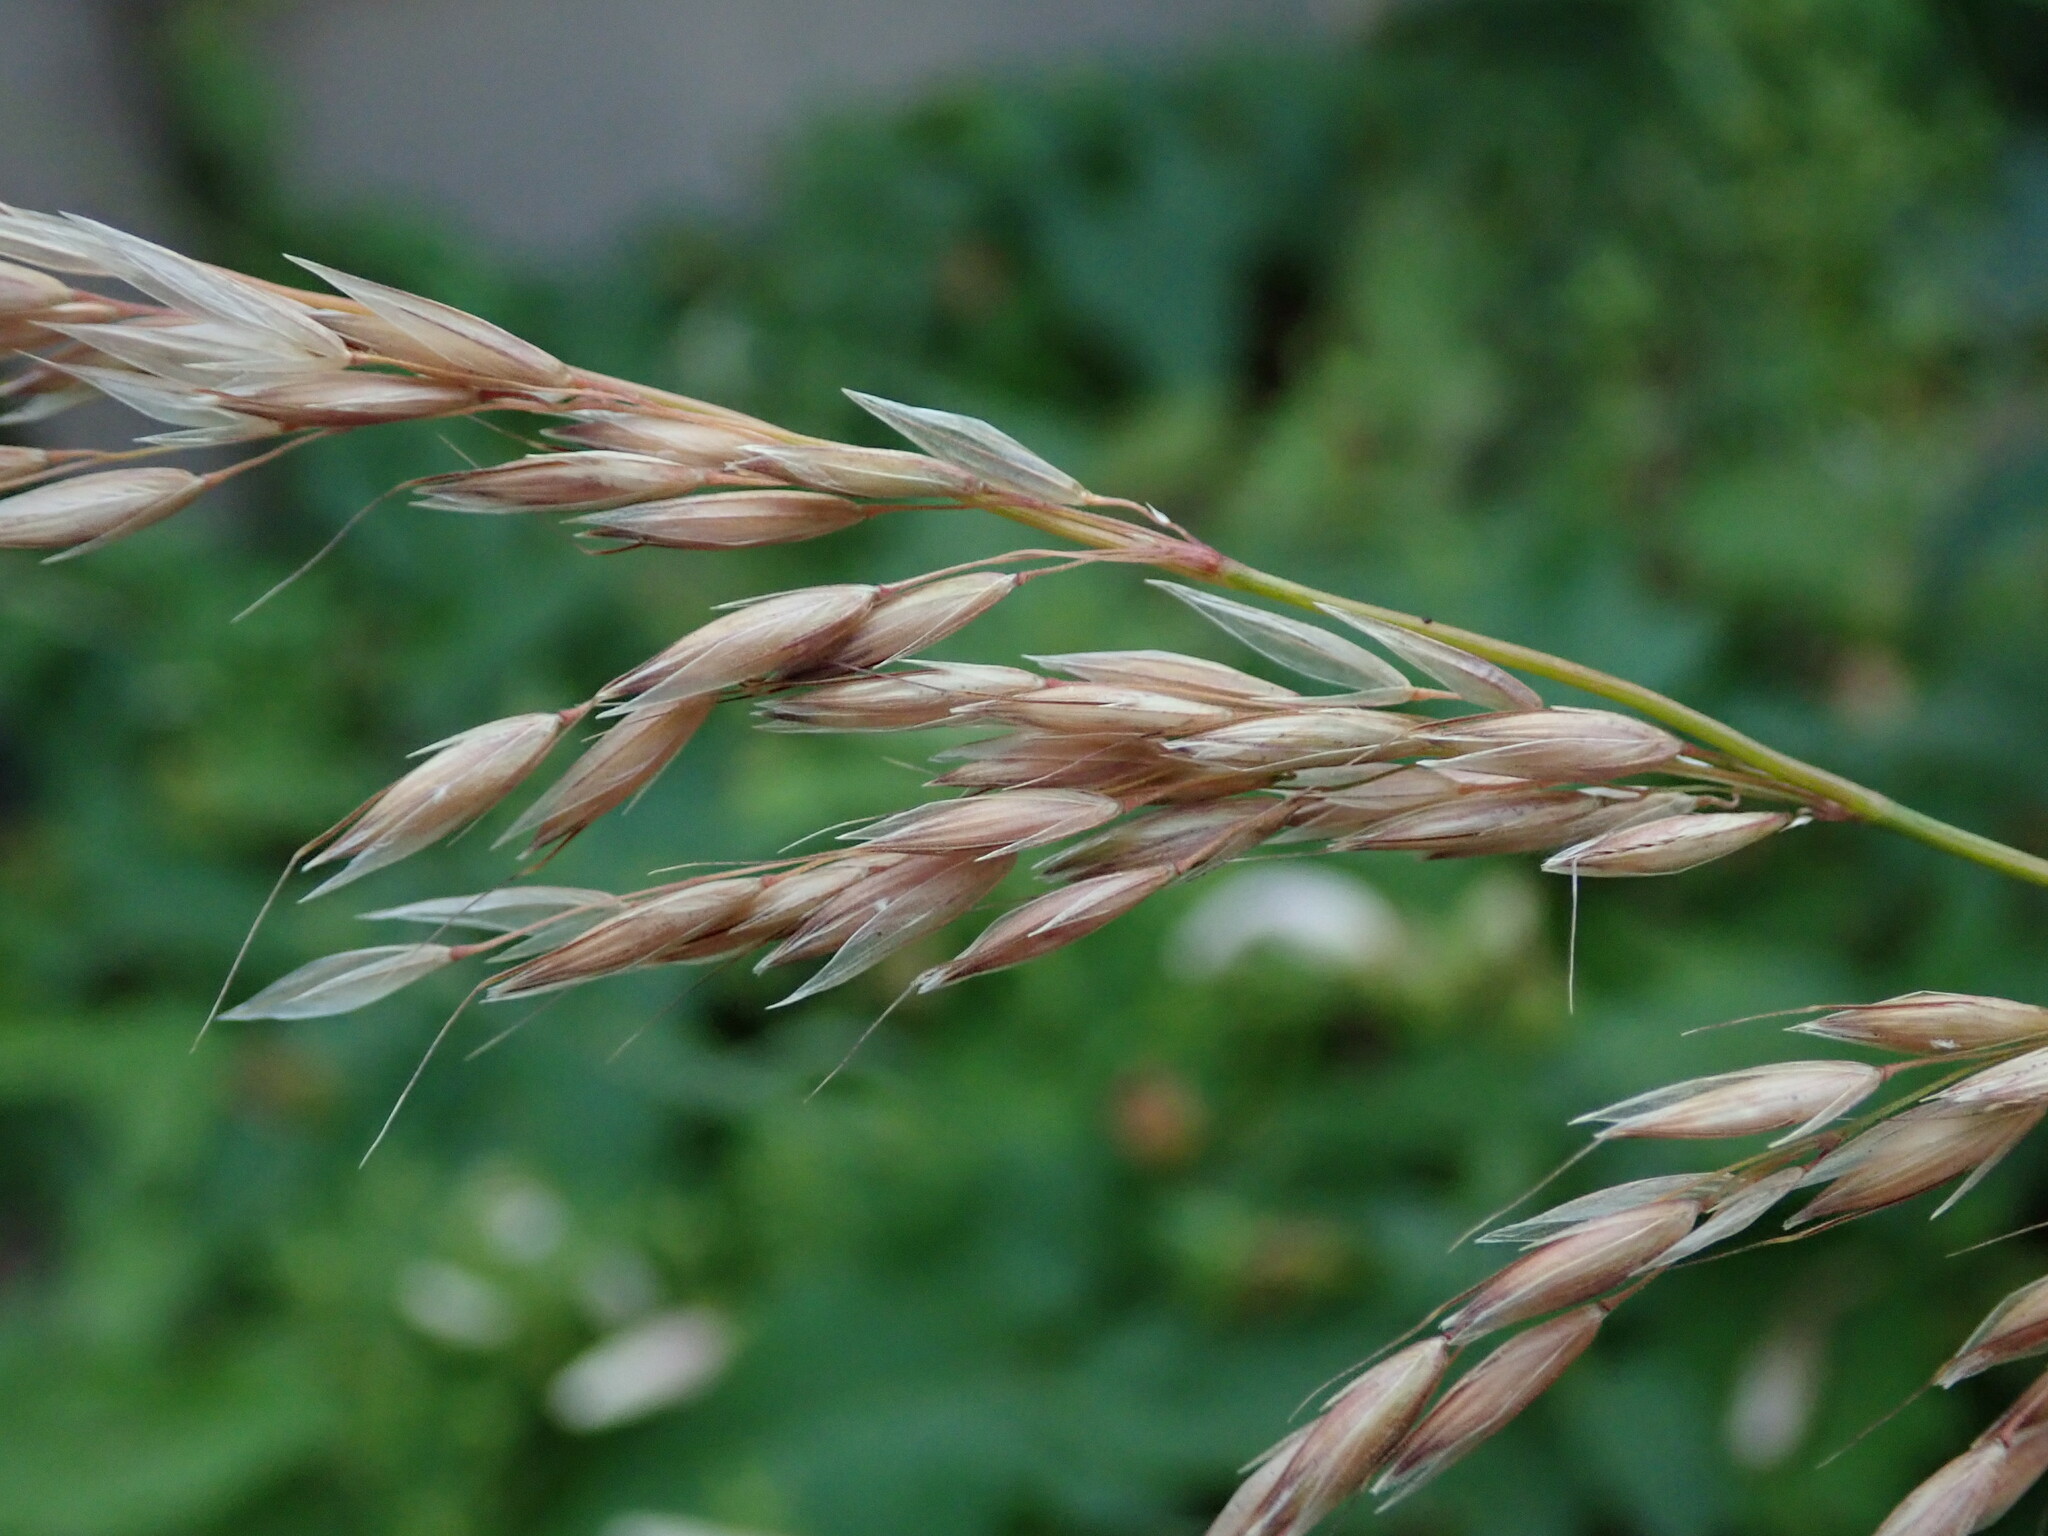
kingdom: Plantae
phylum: Tracheophyta
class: Liliopsida
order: Poales
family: Poaceae
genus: Arrhenatherum
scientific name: Arrhenatherum elatius
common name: Tall oatgrass
